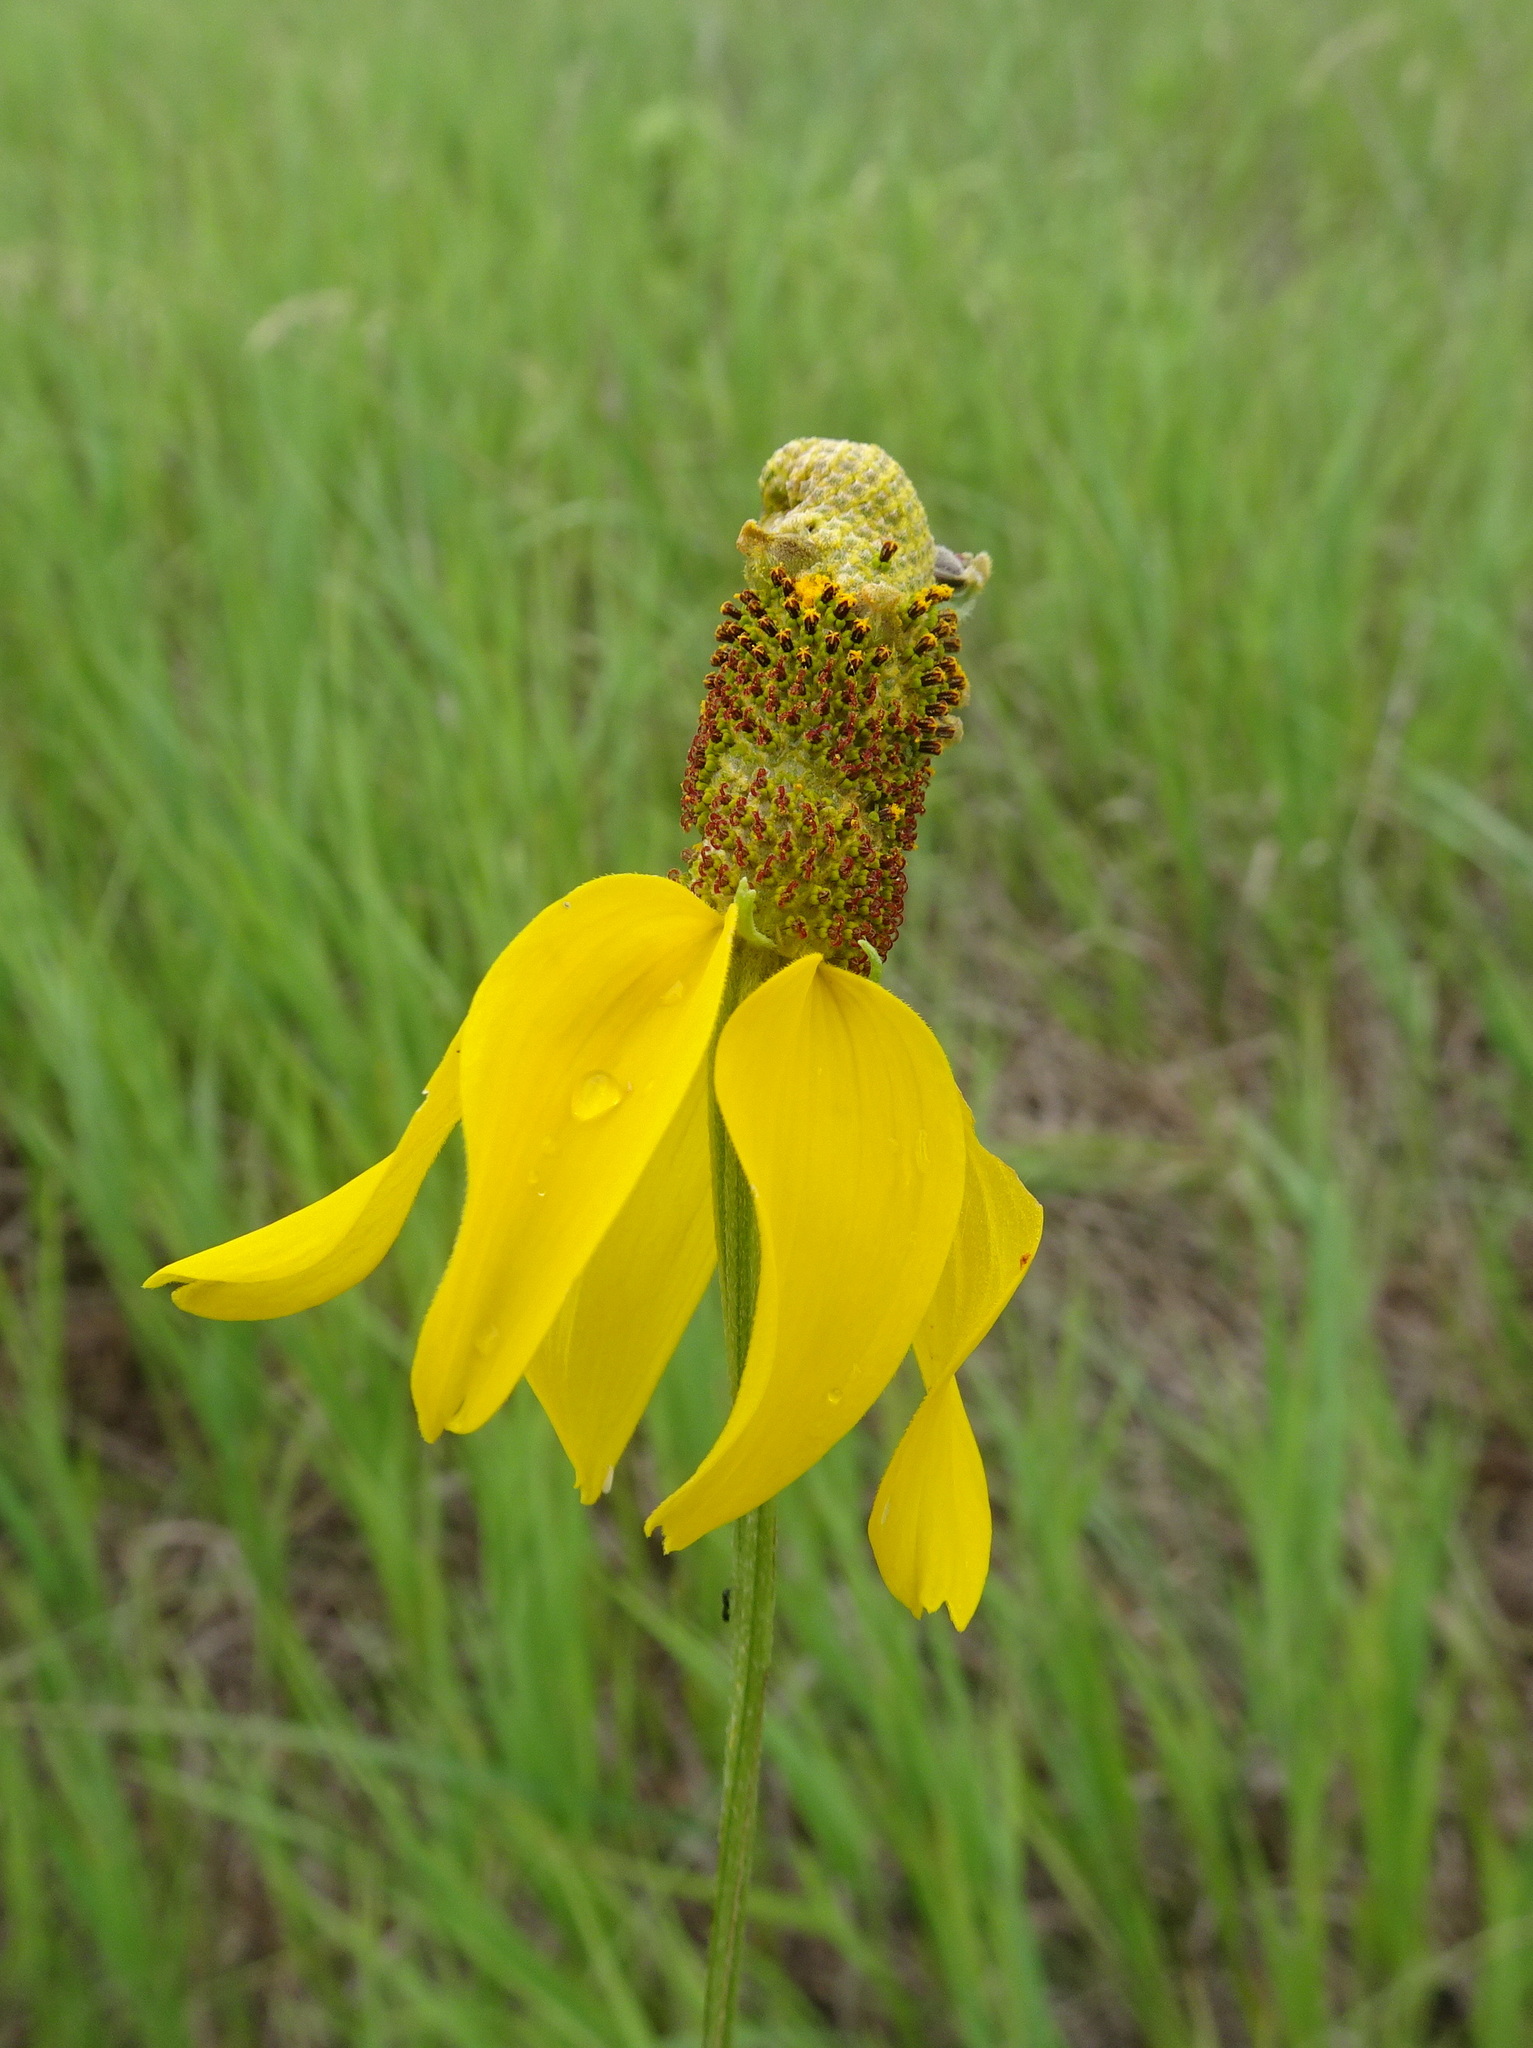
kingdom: Plantae
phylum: Tracheophyta
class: Magnoliopsida
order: Asterales
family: Asteraceae
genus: Ratibida
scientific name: Ratibida columnifera
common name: Prairie coneflower
